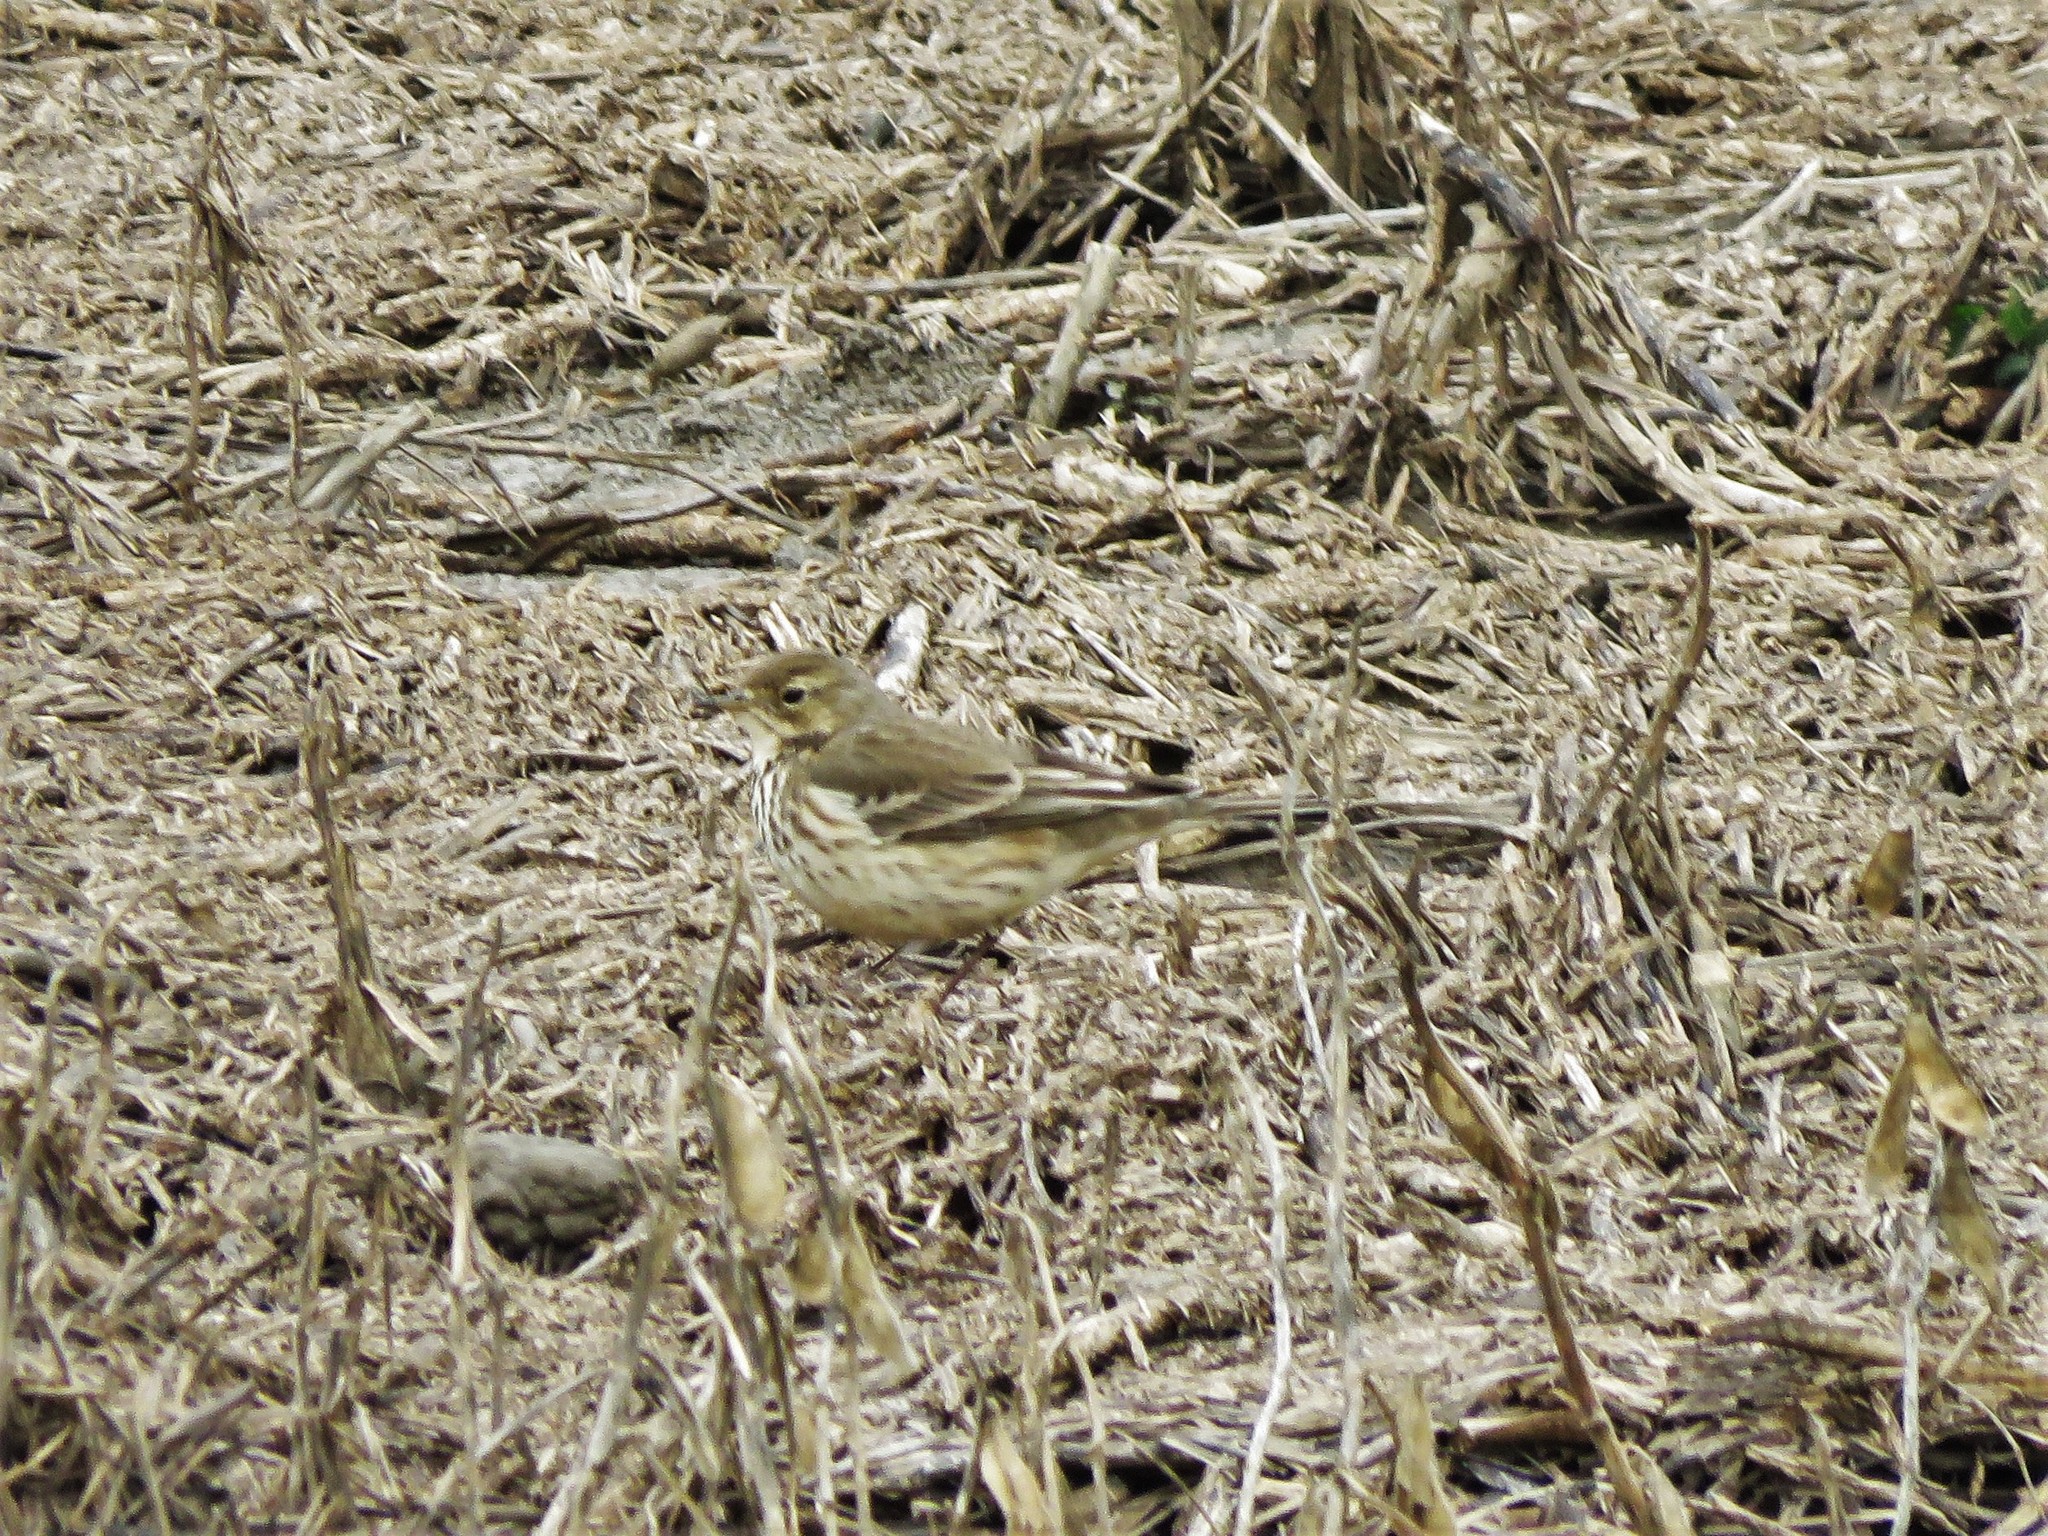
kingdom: Animalia
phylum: Chordata
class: Aves
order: Passeriformes
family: Motacillidae
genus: Anthus
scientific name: Anthus rubescens
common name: Buff-bellied pipit
